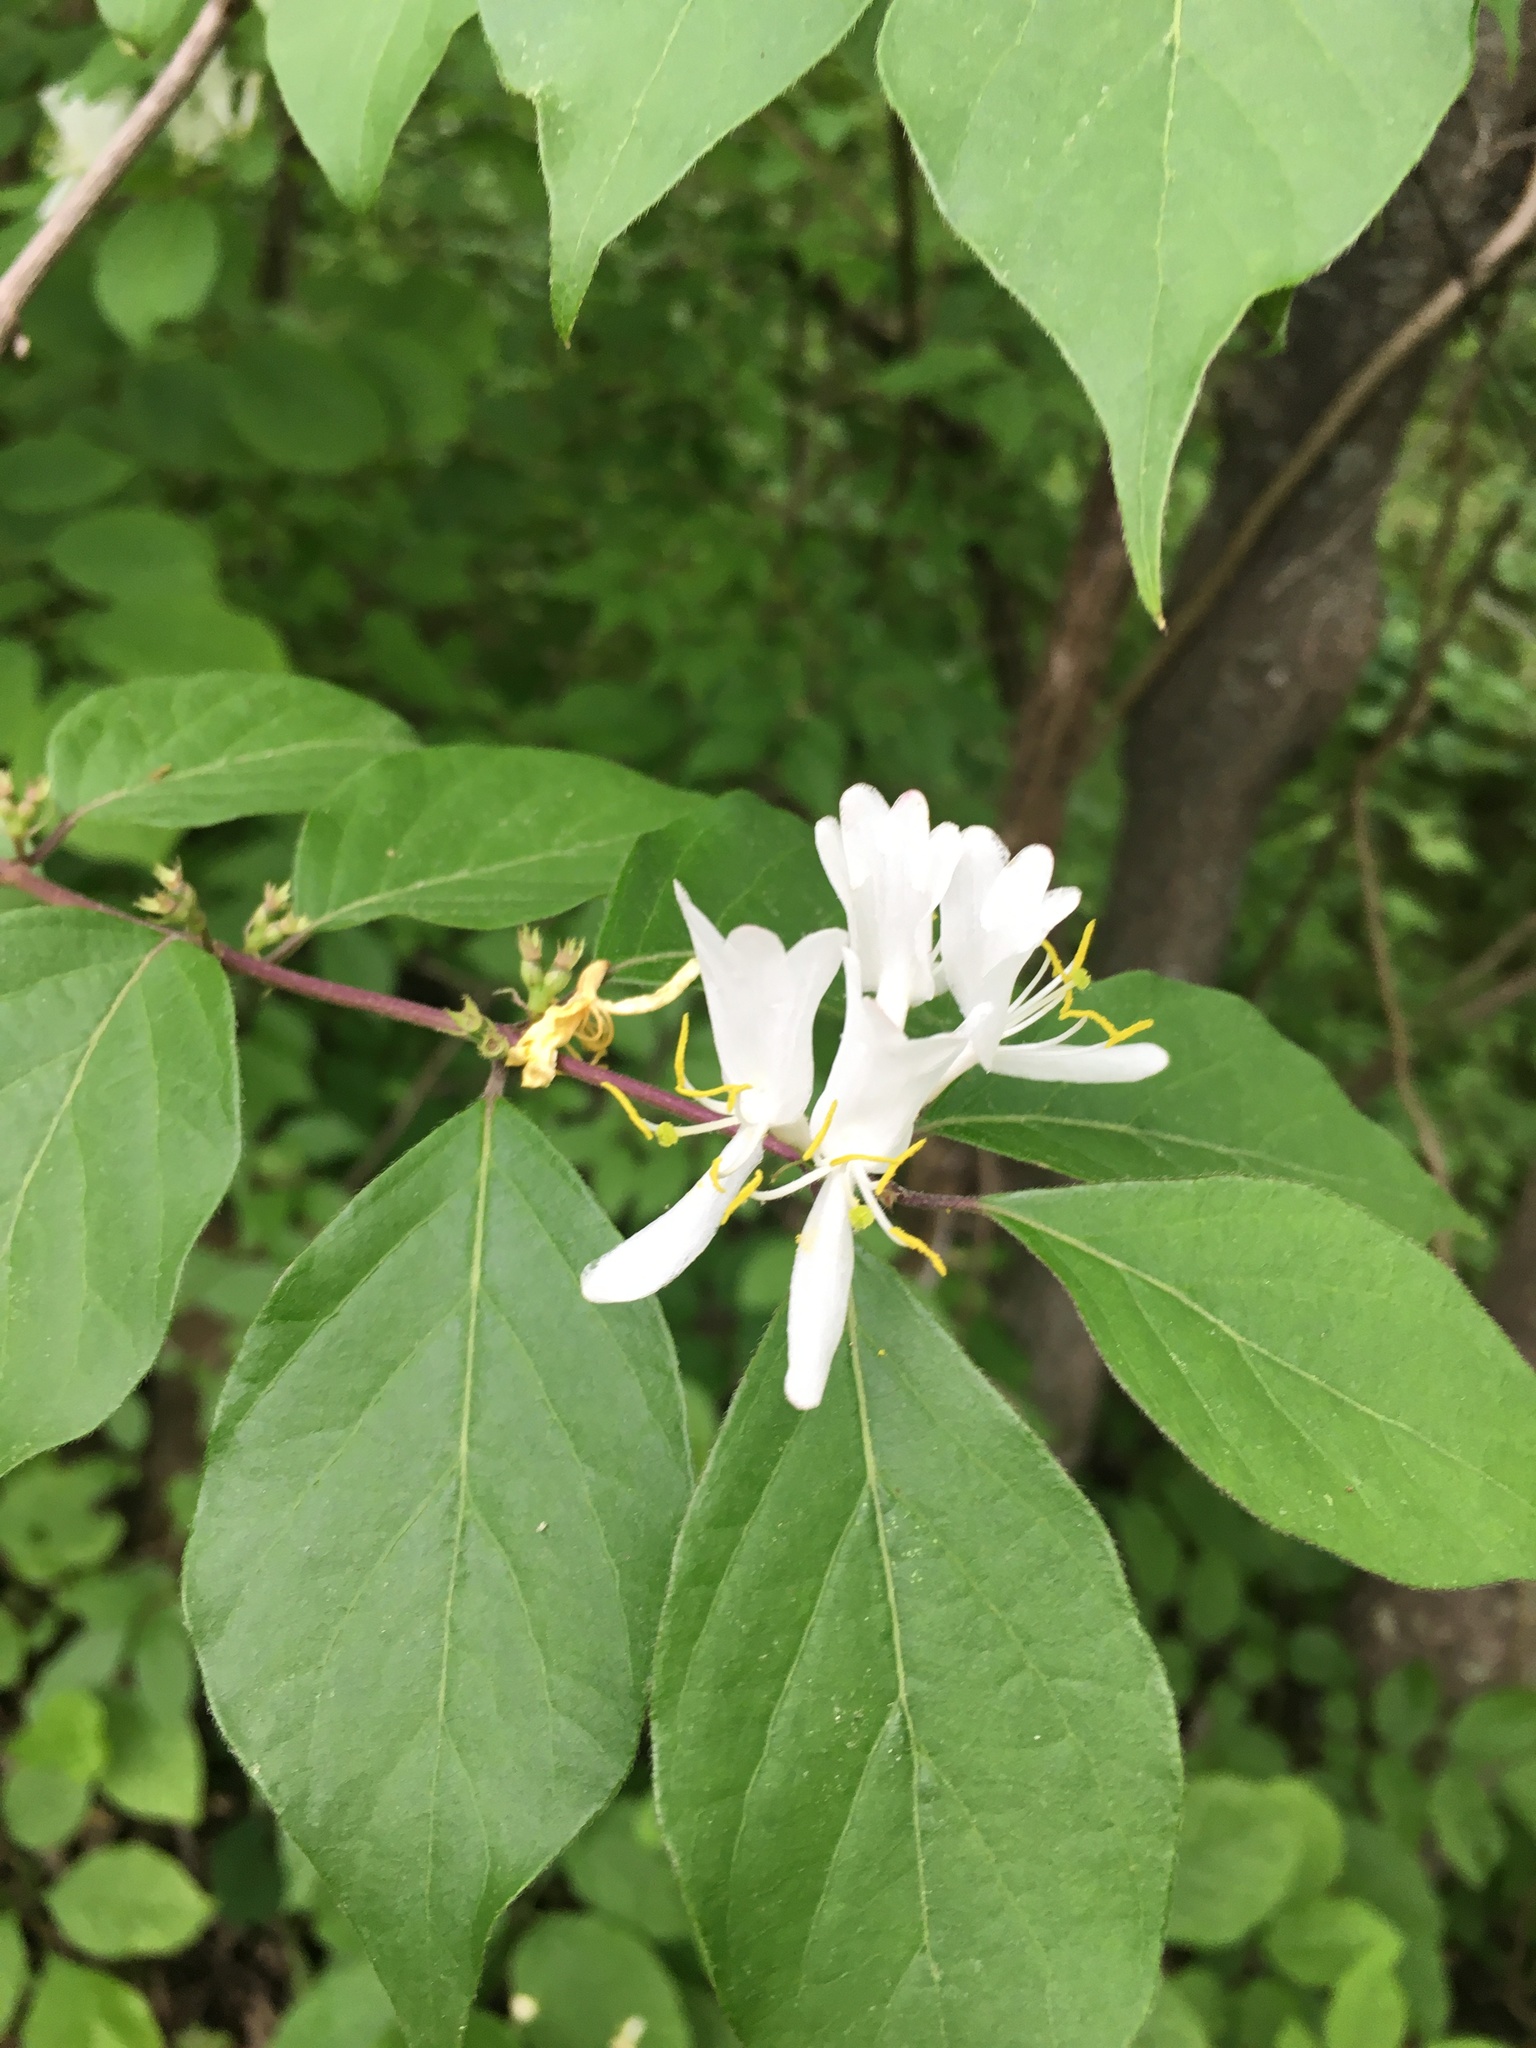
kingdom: Plantae
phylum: Tracheophyta
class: Magnoliopsida
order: Dipsacales
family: Caprifoliaceae
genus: Lonicera
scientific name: Lonicera maackii
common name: Amur honeysuckle
